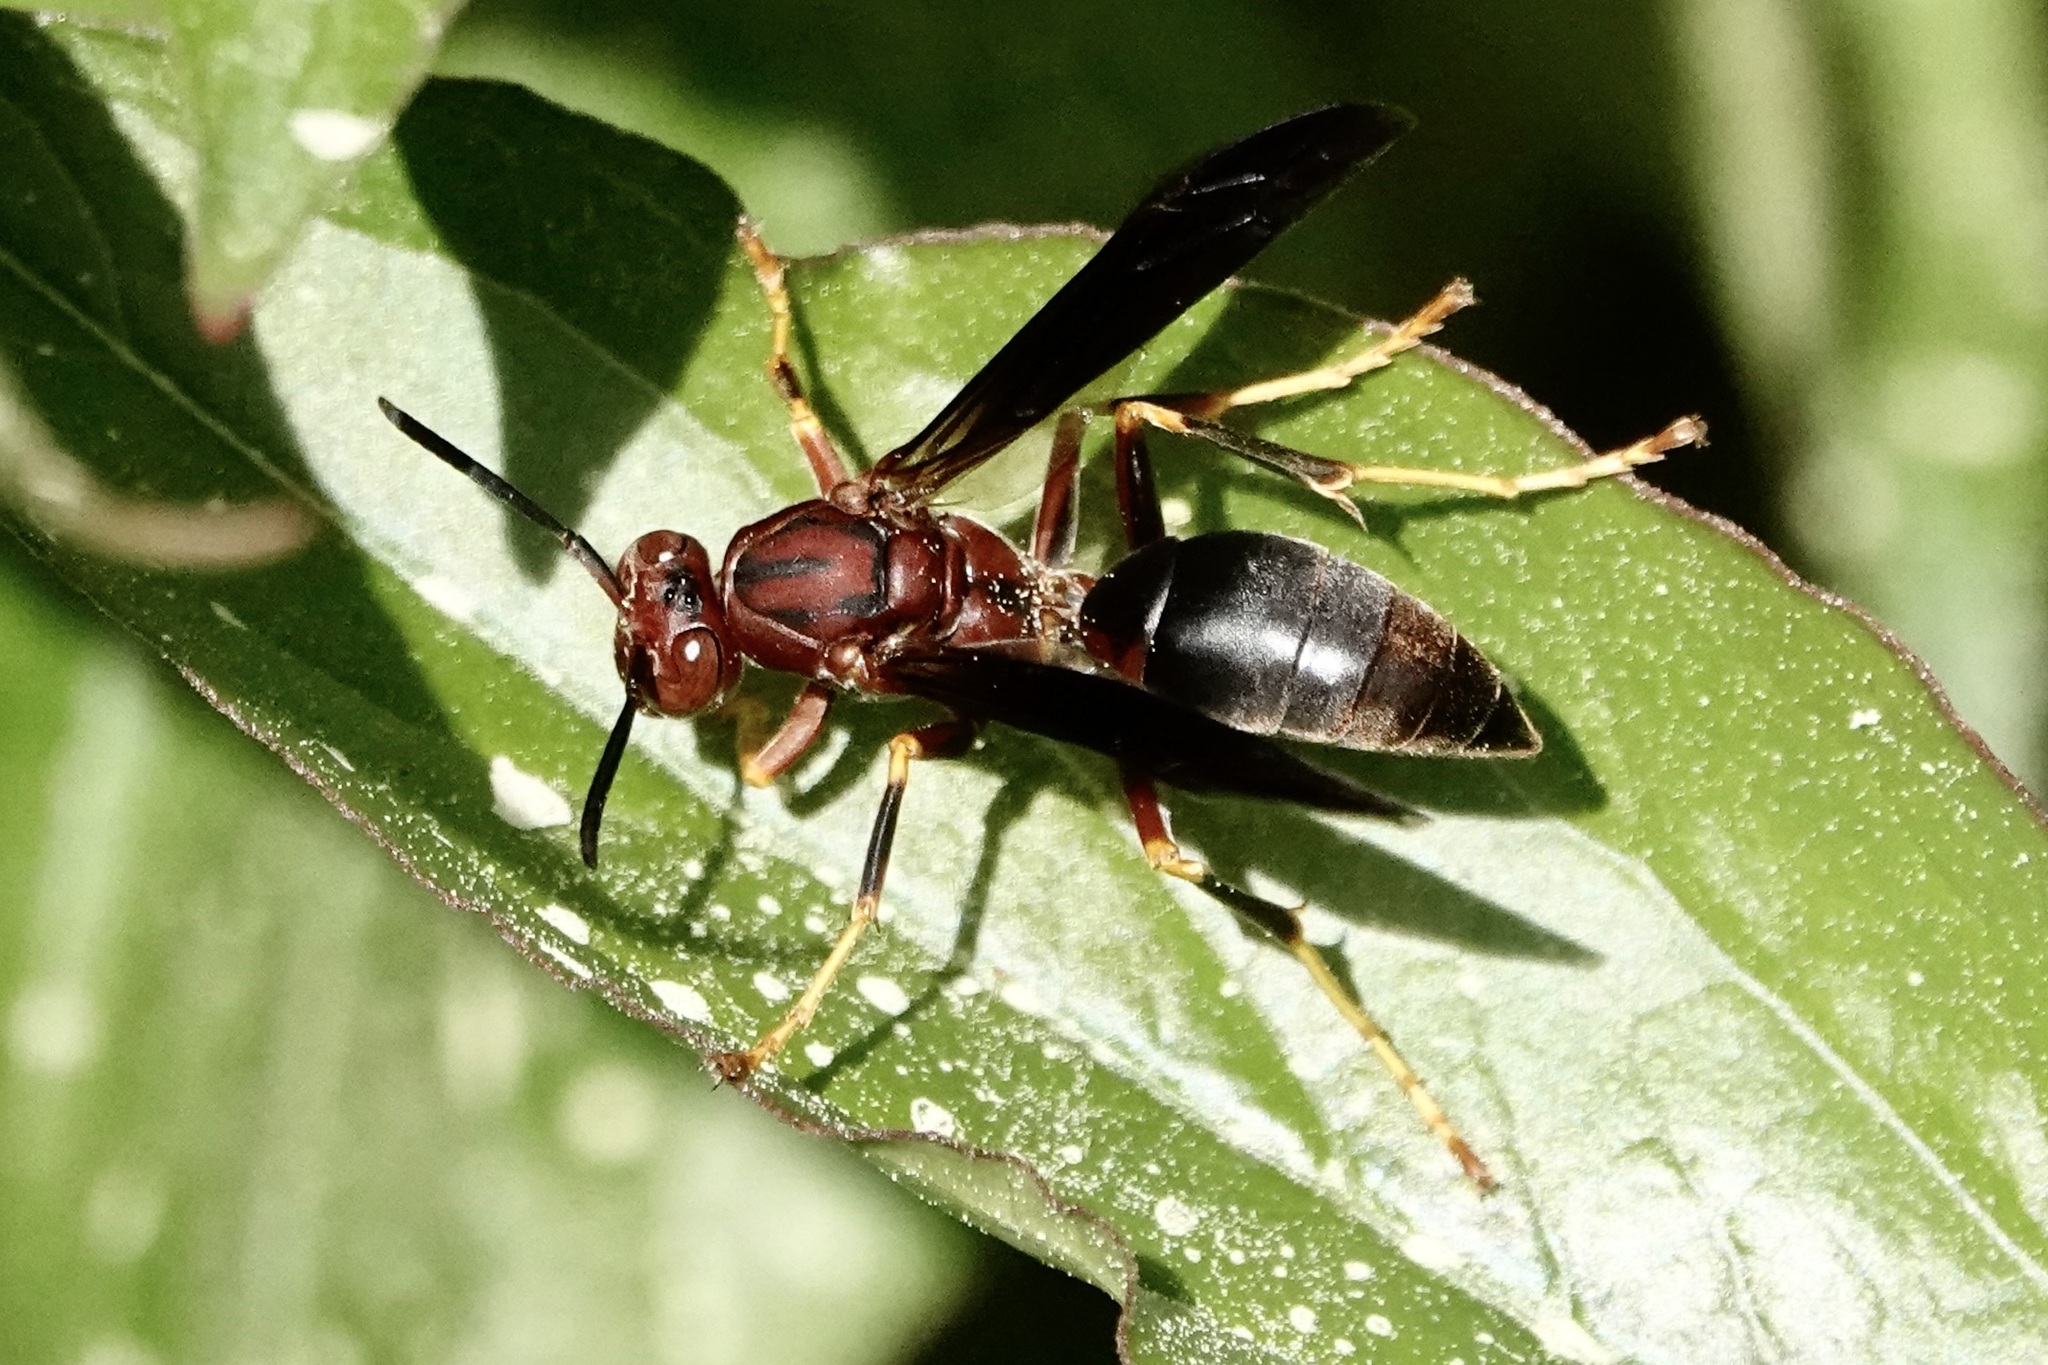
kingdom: Animalia
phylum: Arthropoda
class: Insecta
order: Hymenoptera
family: Eumenidae
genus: Polistes
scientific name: Polistes metricus
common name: Metric paper wasp
